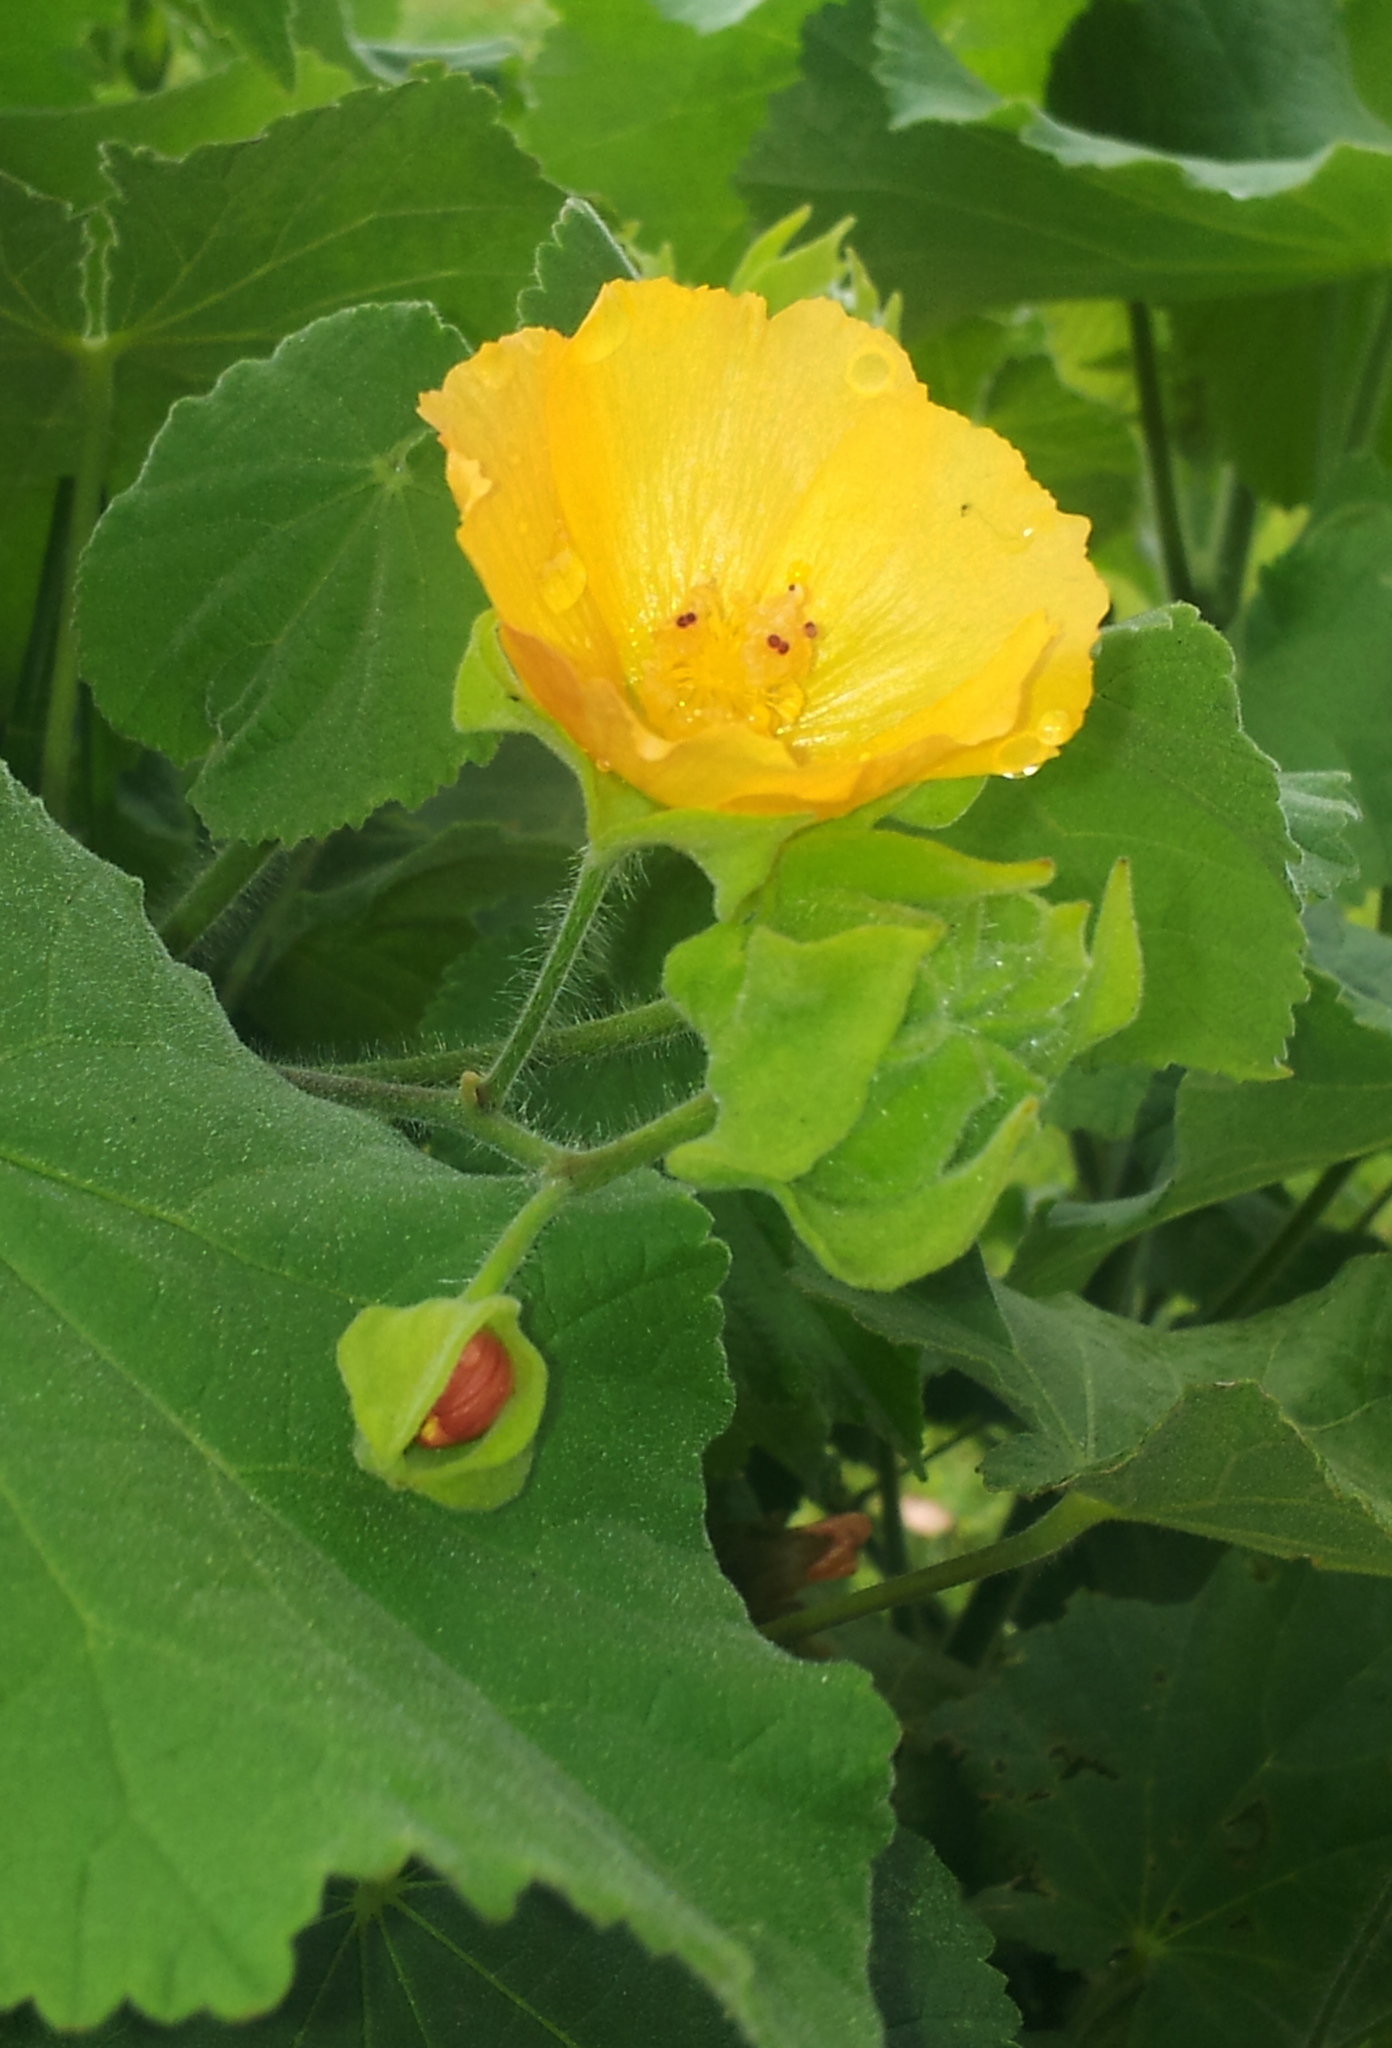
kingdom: Plantae
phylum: Tracheophyta
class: Magnoliopsida
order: Malvales
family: Malvaceae
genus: Abutilon
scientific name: Abutilon grandifolium
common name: Hairy abutilon
